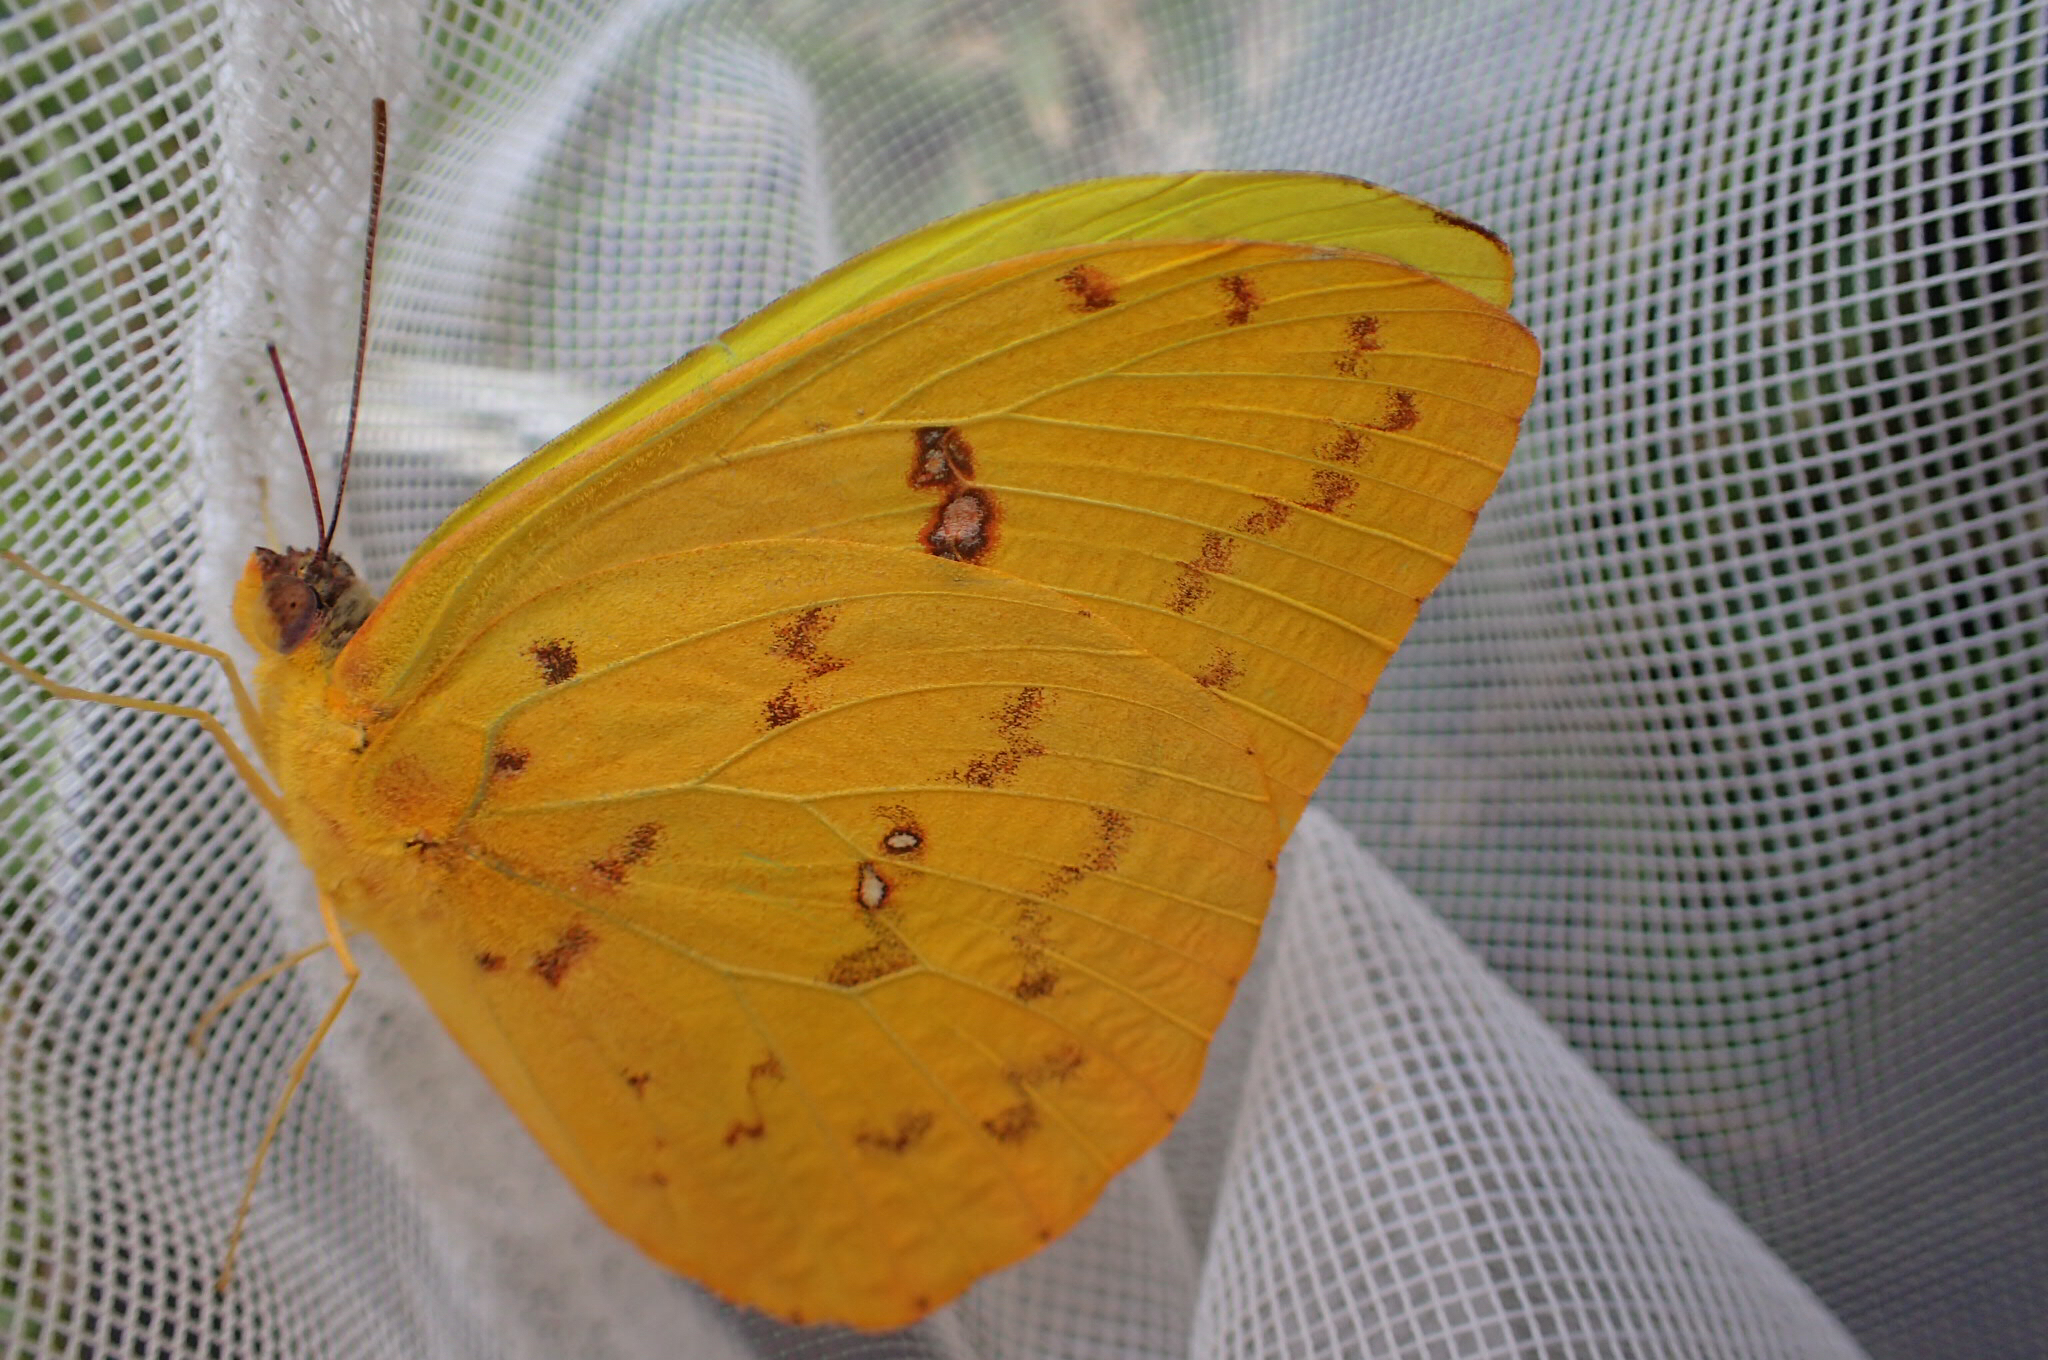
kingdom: Animalia
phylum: Arthropoda
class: Insecta
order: Lepidoptera
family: Pieridae
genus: Phoebis
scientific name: Phoebis philea
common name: Orange-barred giant sulphur
